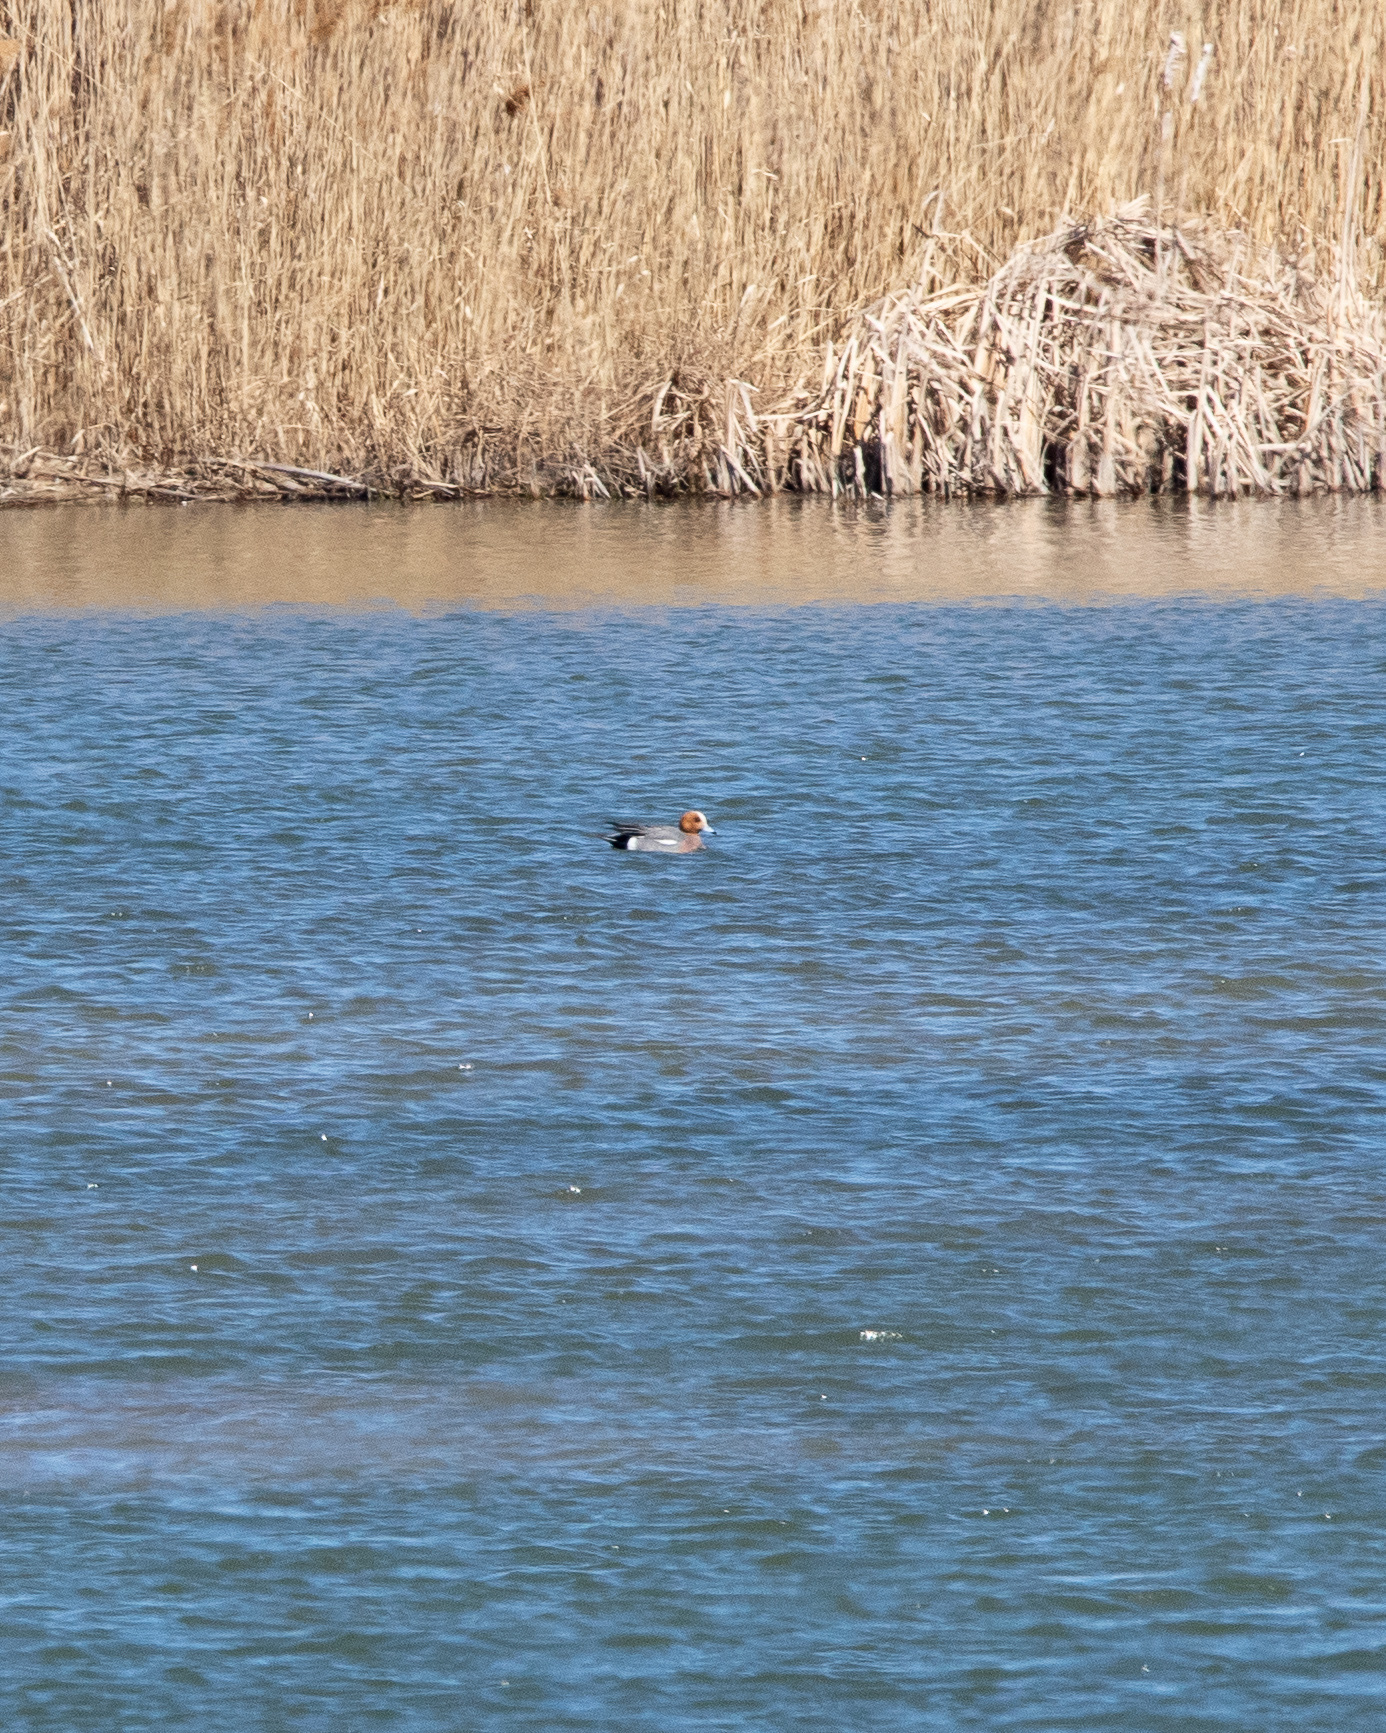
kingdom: Animalia
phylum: Chordata
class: Aves
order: Anseriformes
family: Anatidae
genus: Mareca
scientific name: Mareca penelope
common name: Eurasian wigeon
